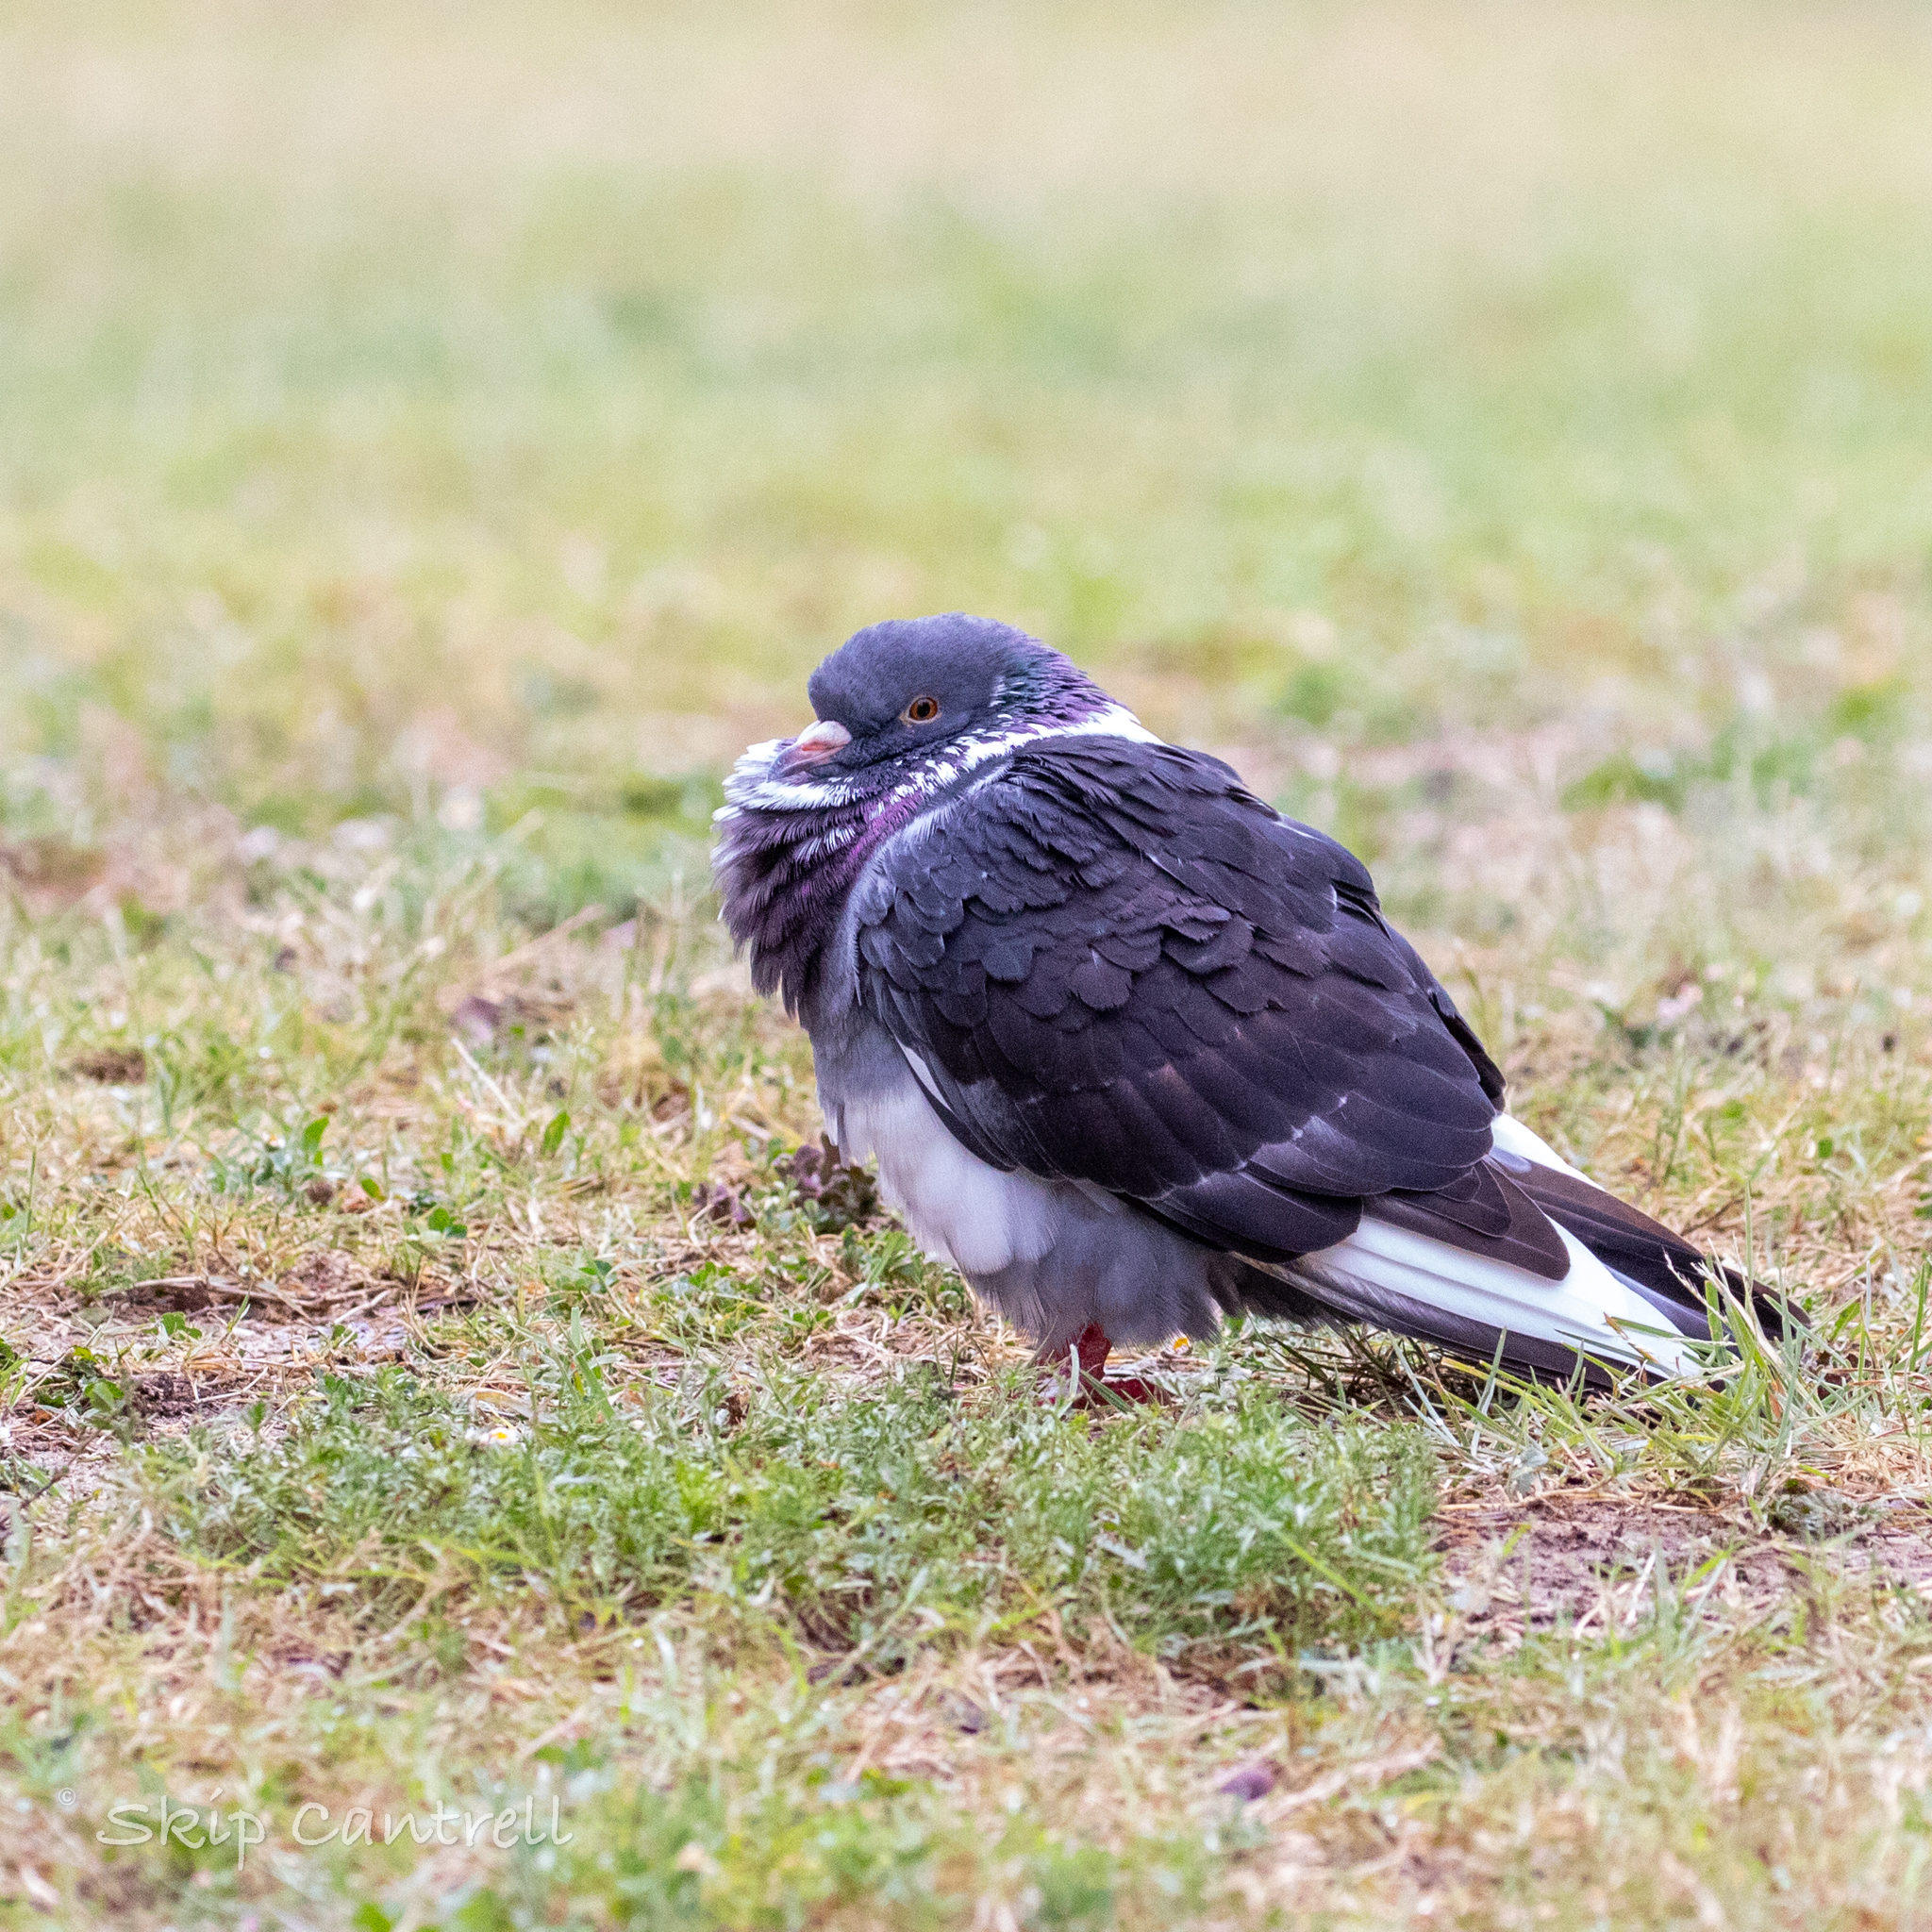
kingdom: Animalia
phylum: Chordata
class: Aves
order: Columbiformes
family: Columbidae
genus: Columba
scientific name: Columba livia
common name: Rock pigeon
